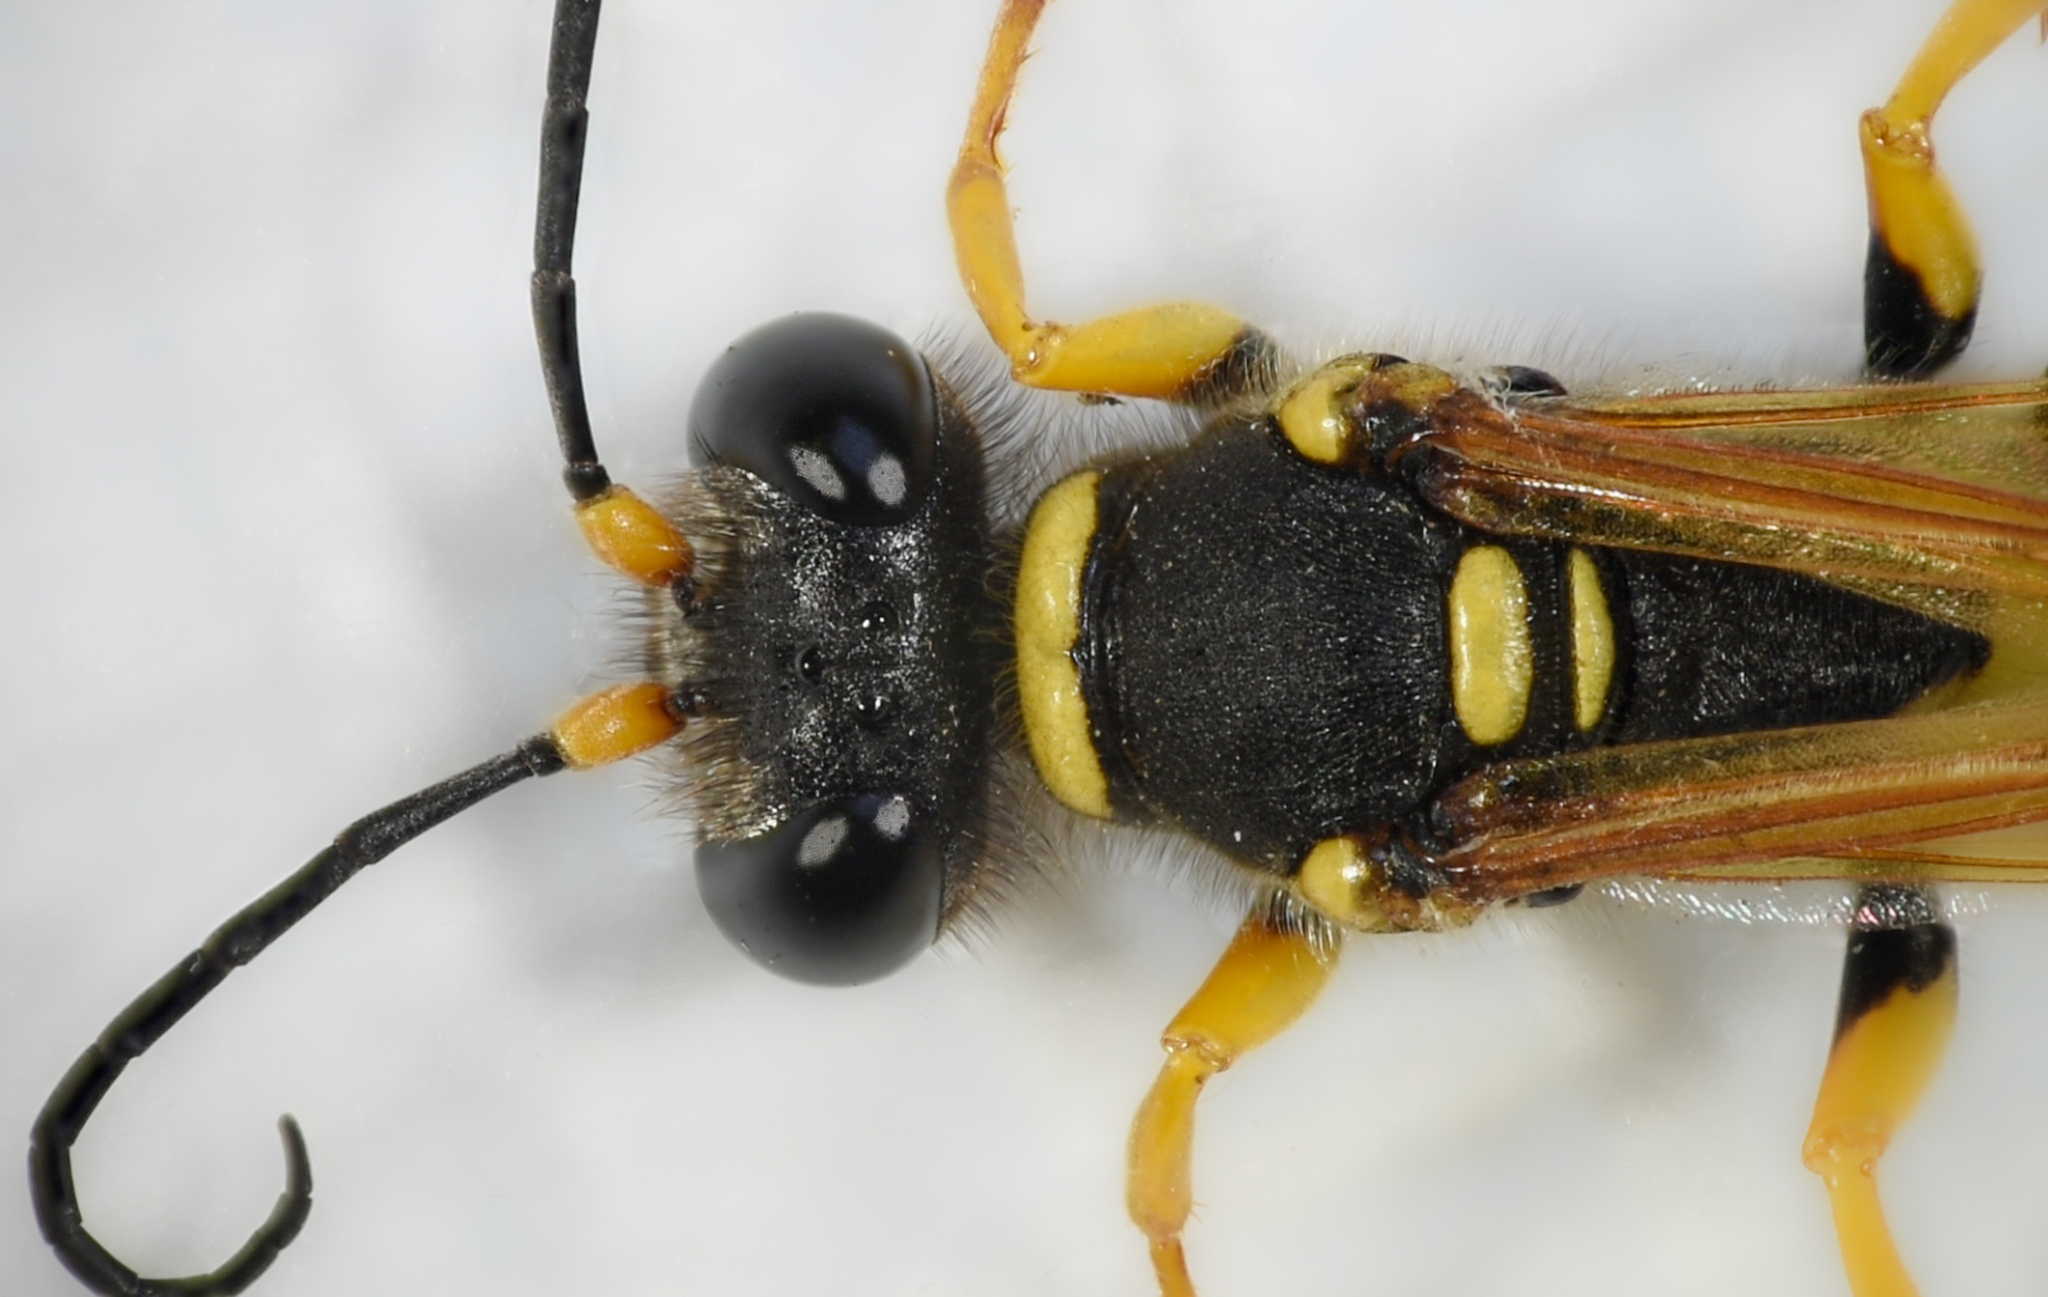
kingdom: Animalia
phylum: Arthropoda
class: Insecta
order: Hymenoptera
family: Sphecidae
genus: Sceliphron
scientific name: Sceliphron caementarium
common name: Mud dauber
